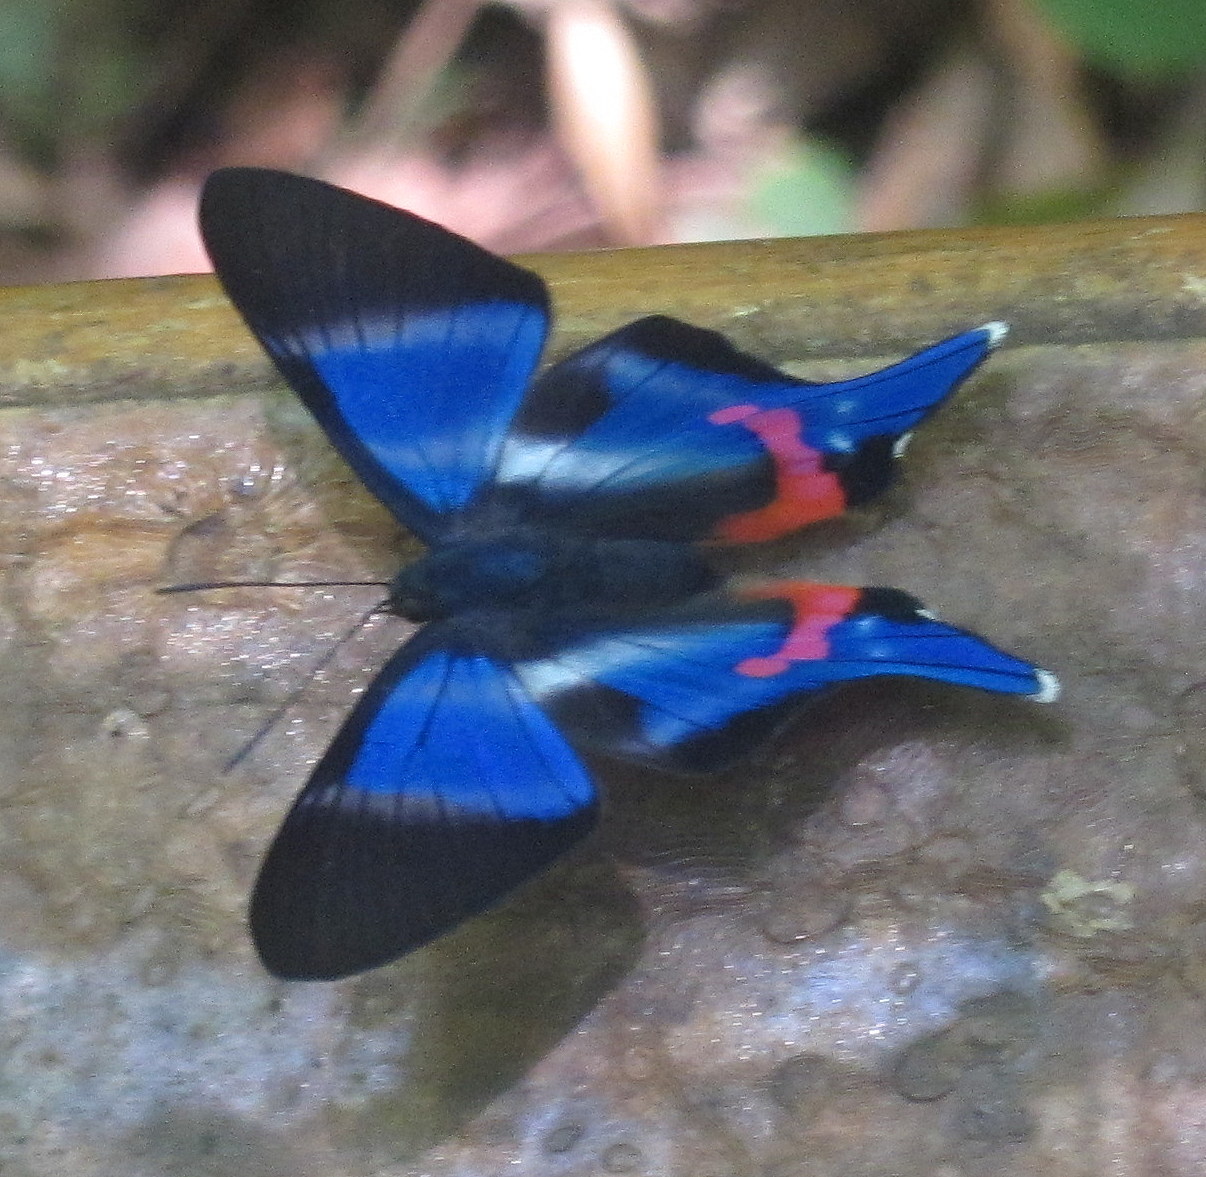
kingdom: Animalia
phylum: Arthropoda
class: Insecta
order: Lepidoptera
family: Riodinidae
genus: Rhetus
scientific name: Rhetus dysonii
